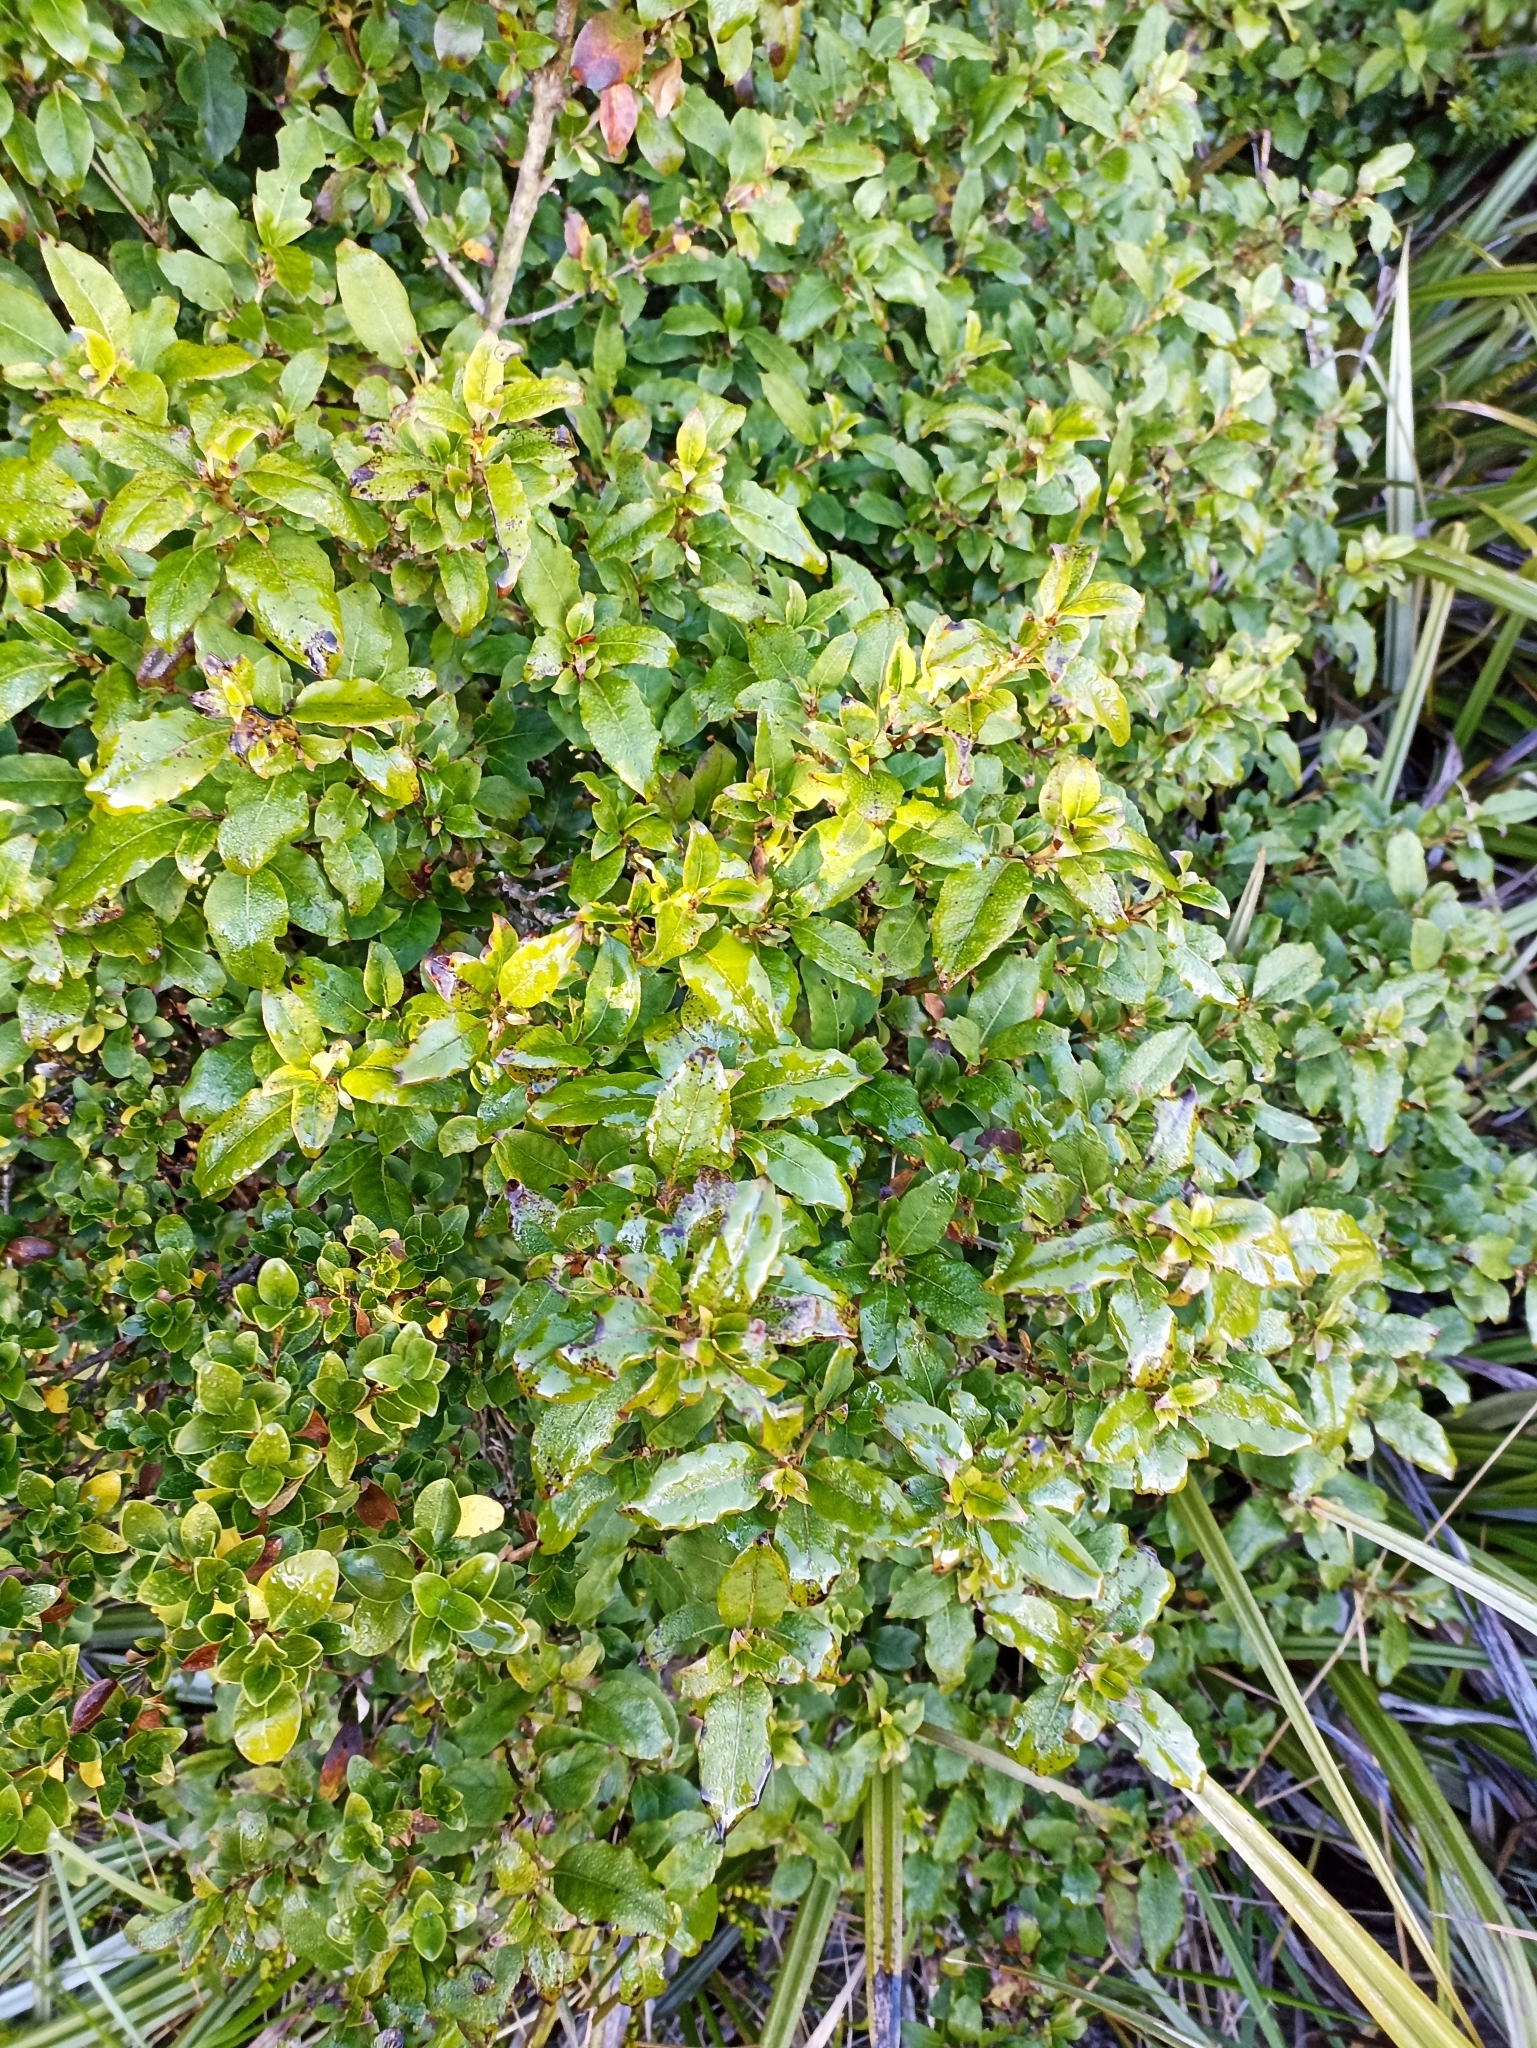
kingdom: Plantae
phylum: Tracheophyta
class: Magnoliopsida
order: Gentianales
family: Rubiaceae
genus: Coprosma
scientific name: Coprosma tenuifolia
